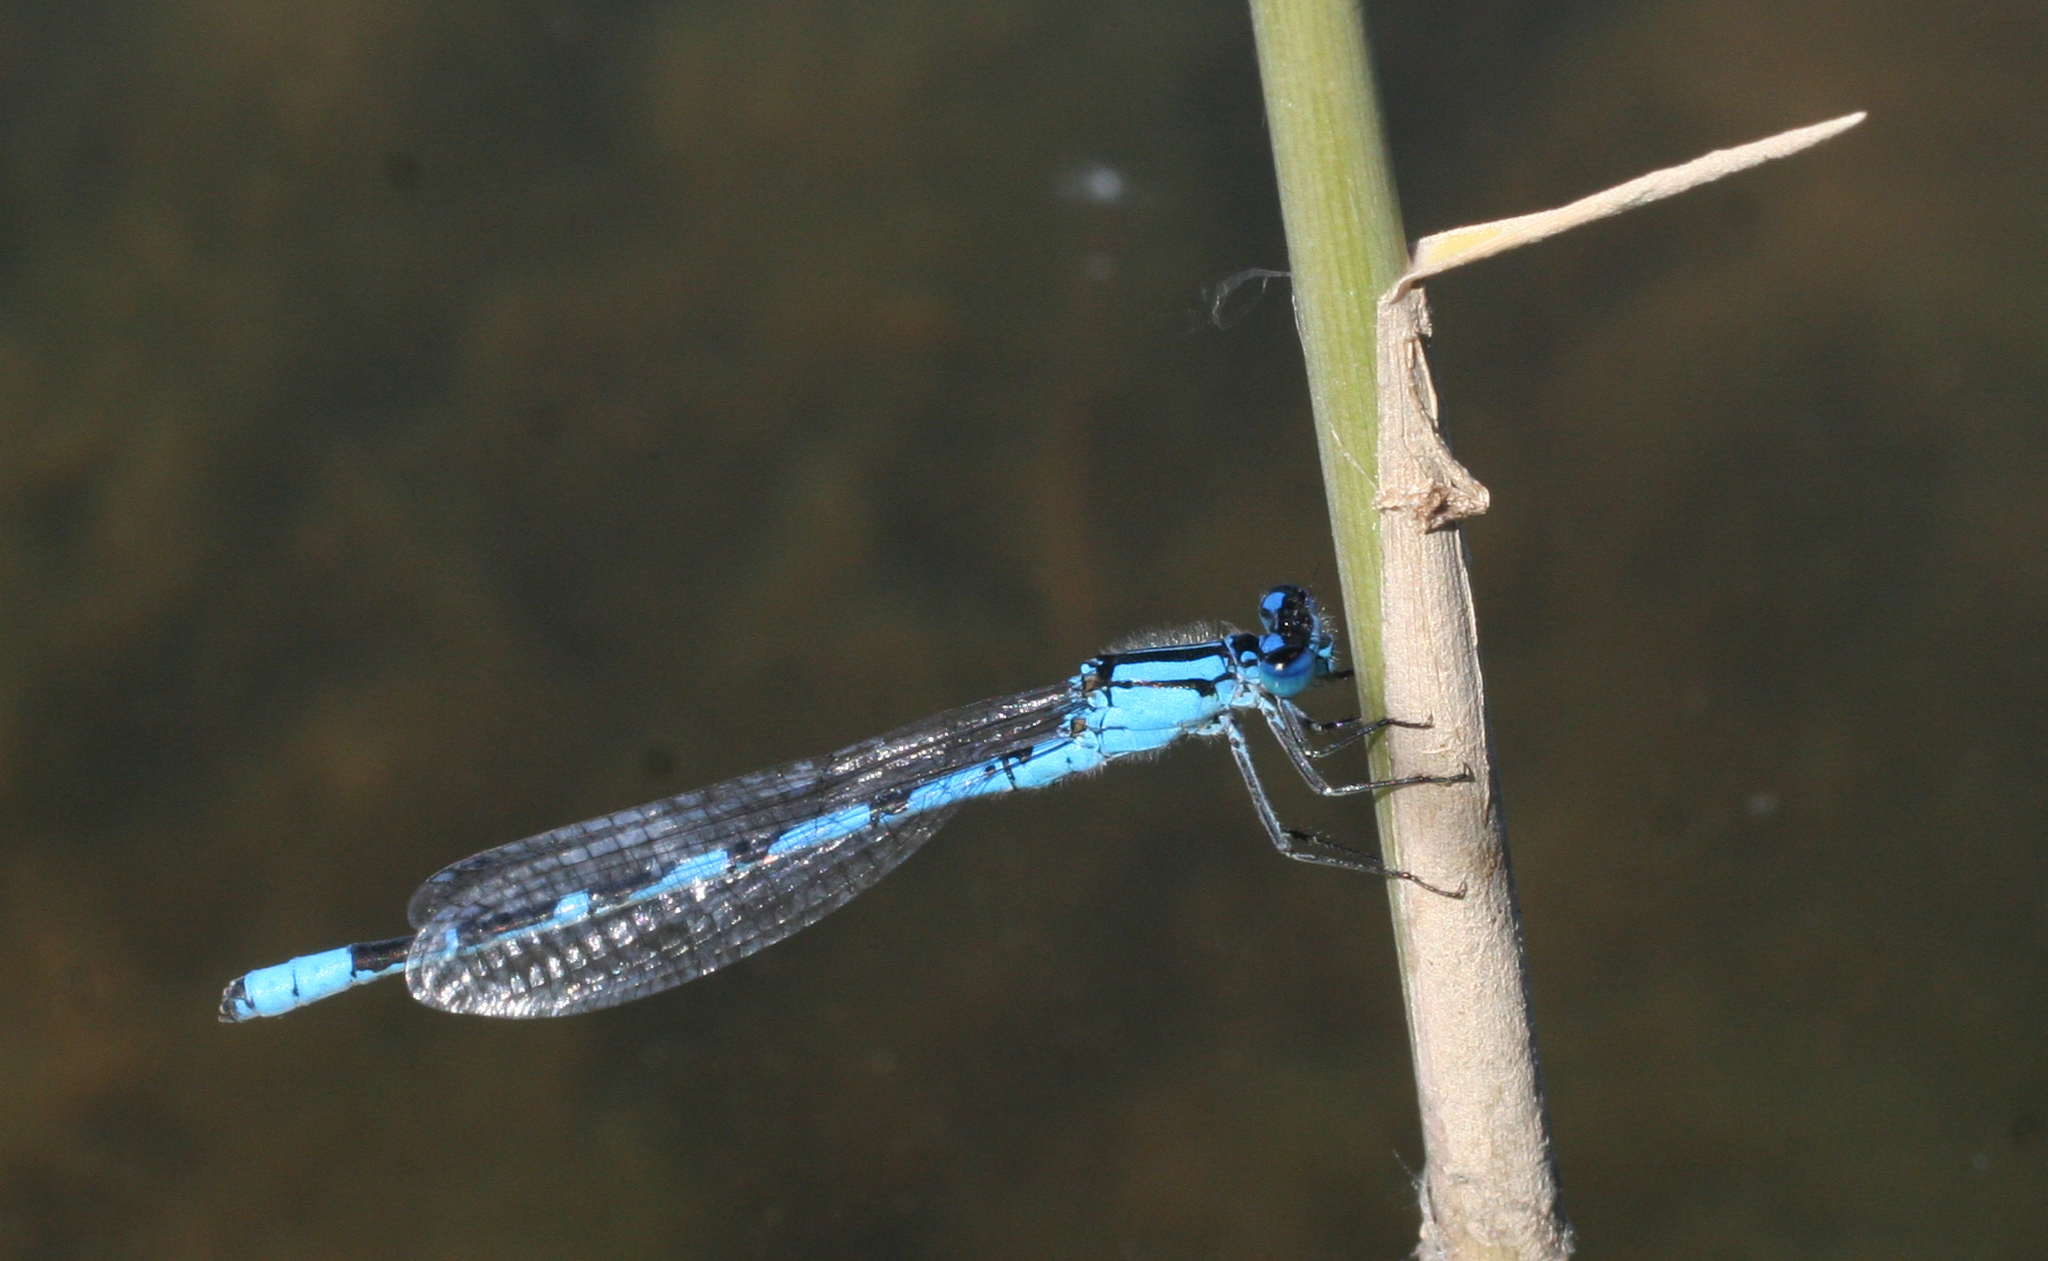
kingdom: Animalia
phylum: Arthropoda
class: Insecta
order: Odonata
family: Coenagrionidae
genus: Enallagma
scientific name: Enallagma cyathigerum
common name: Common blue damselfly
